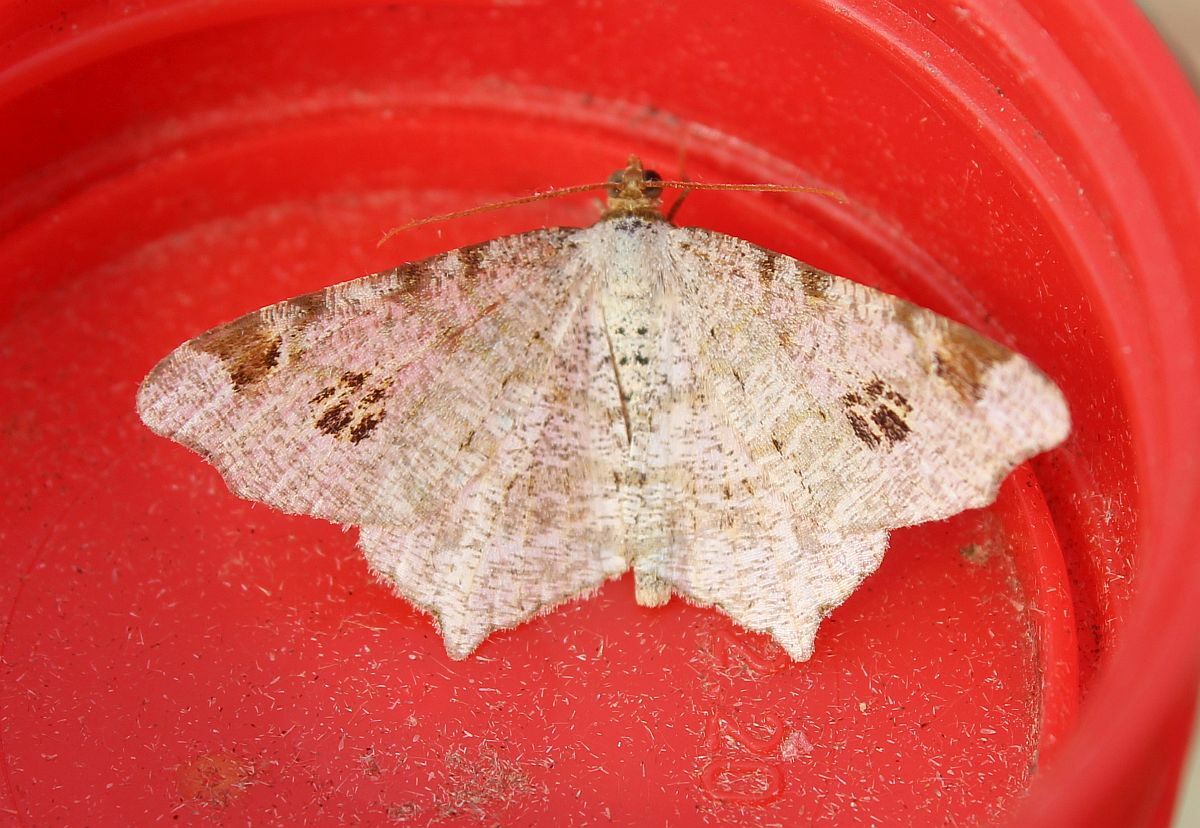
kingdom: Animalia
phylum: Arthropoda
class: Insecta
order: Lepidoptera
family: Geometridae
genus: Macaria
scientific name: Macaria notata
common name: Peacock moth
